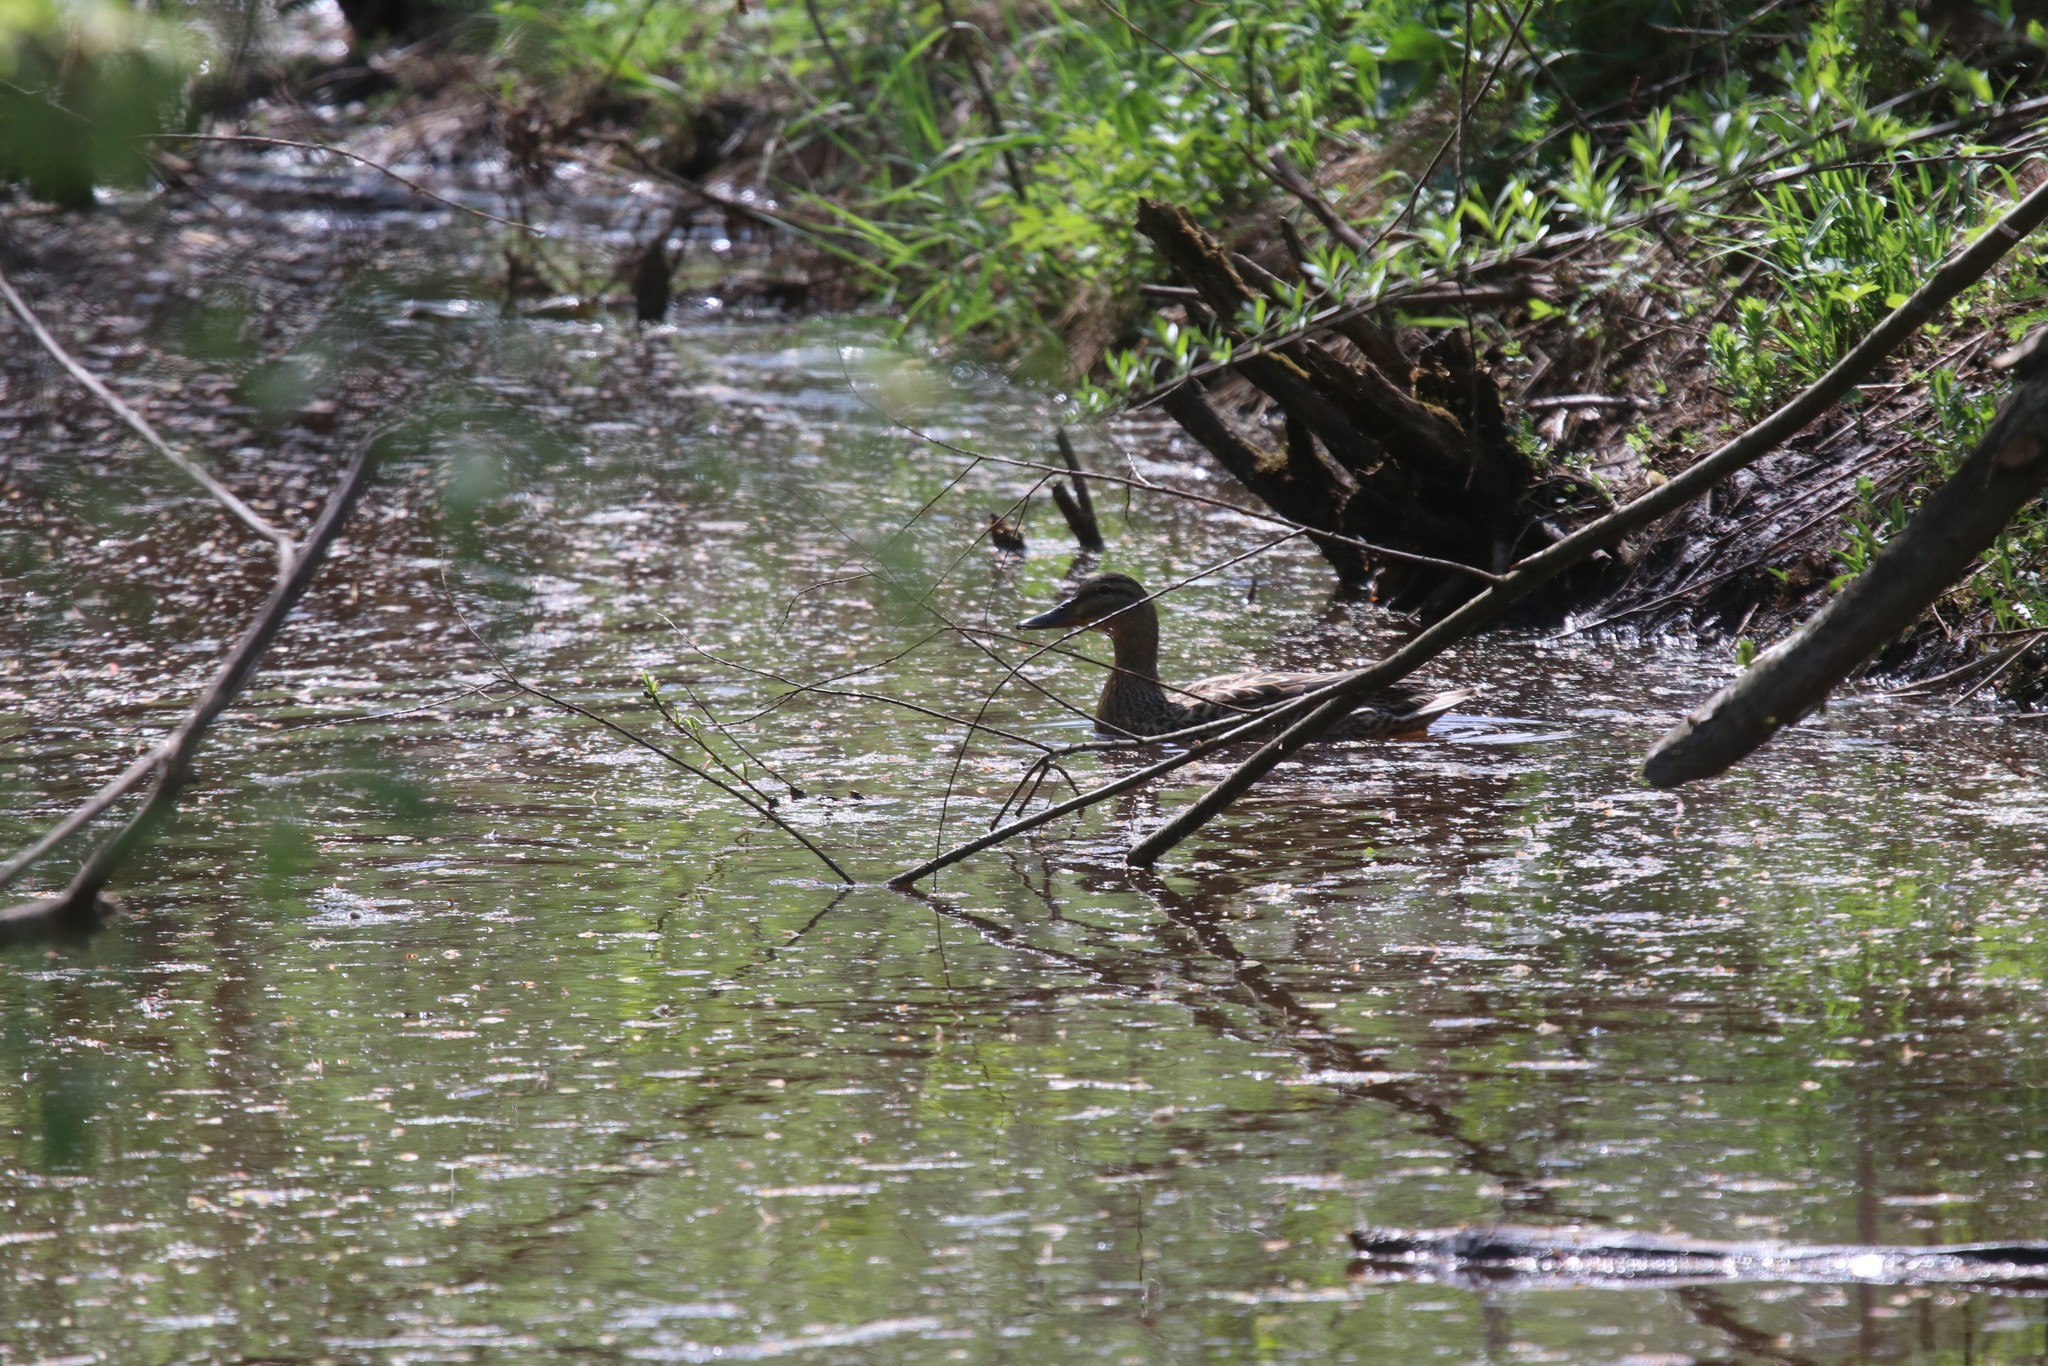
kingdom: Animalia
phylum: Chordata
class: Aves
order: Anseriformes
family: Anatidae
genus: Anas
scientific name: Anas platyrhynchos
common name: Mallard
